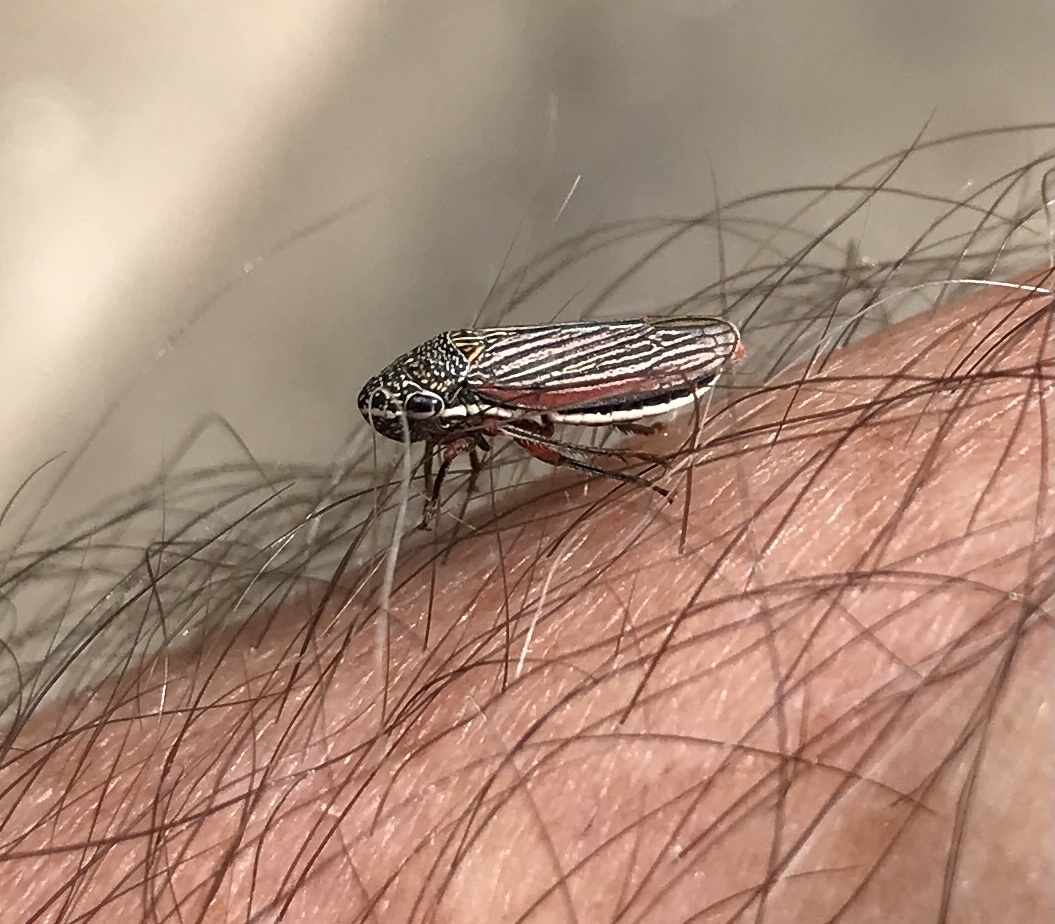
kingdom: Animalia
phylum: Arthropoda
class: Insecta
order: Hemiptera
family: Cicadellidae
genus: Cuerna
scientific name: Cuerna costalis
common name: Lateral-lined sharpshooter
